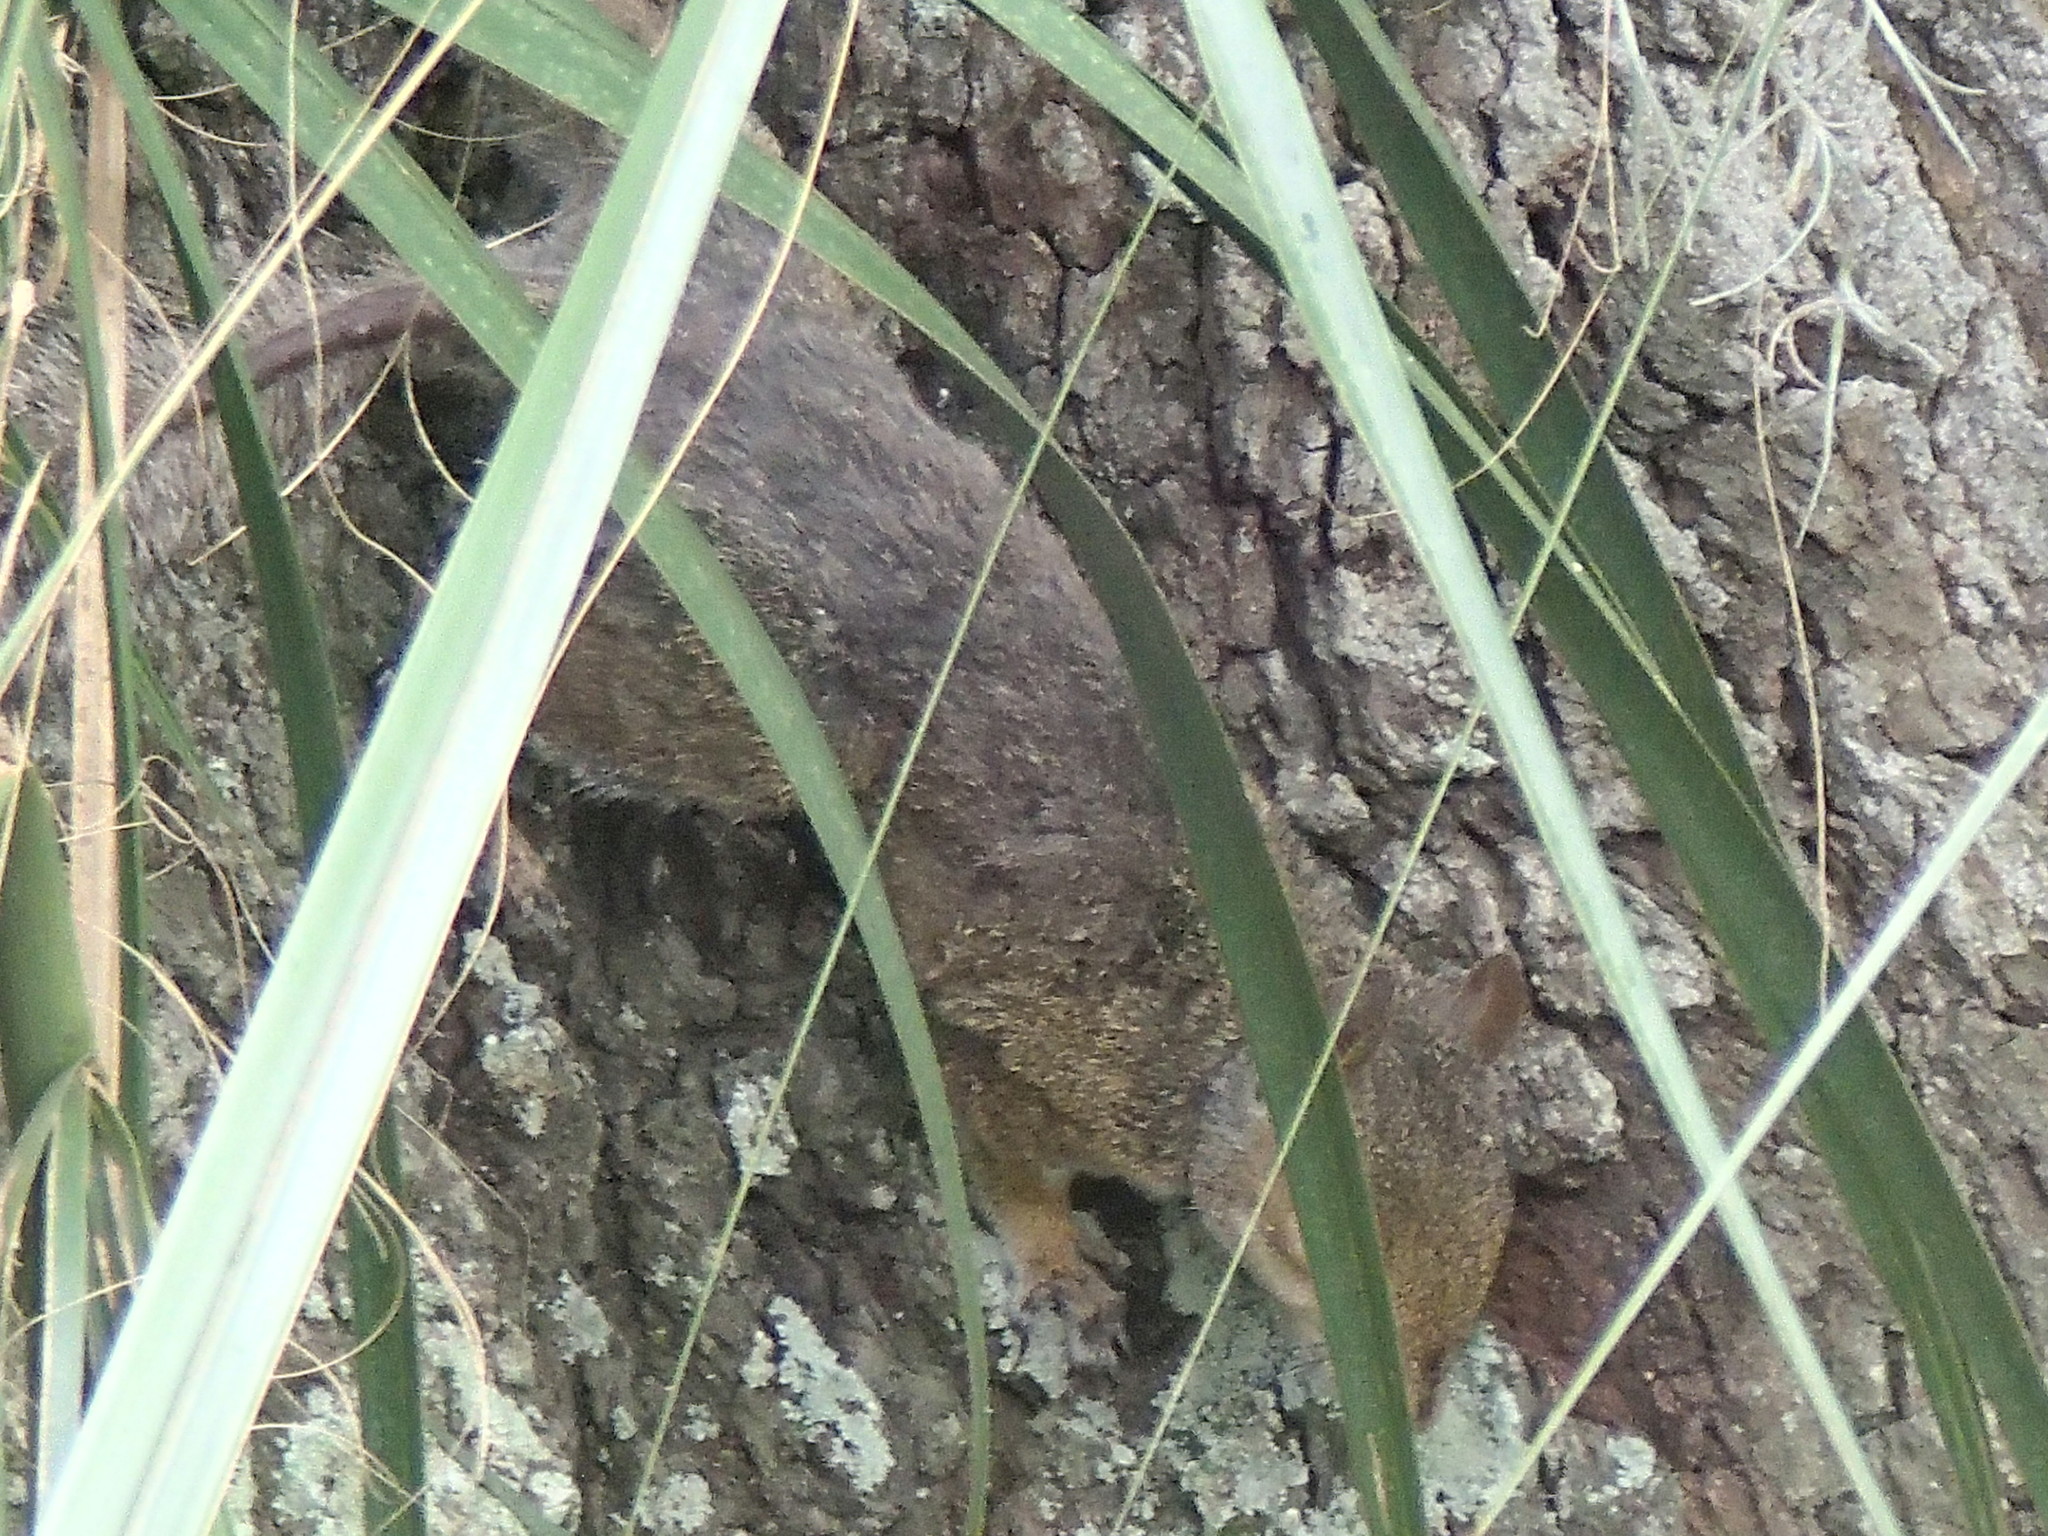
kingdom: Animalia
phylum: Chordata
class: Mammalia
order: Rodentia
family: Sciuridae
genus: Sciurus
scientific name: Sciurus carolinensis
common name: Eastern gray squirrel
